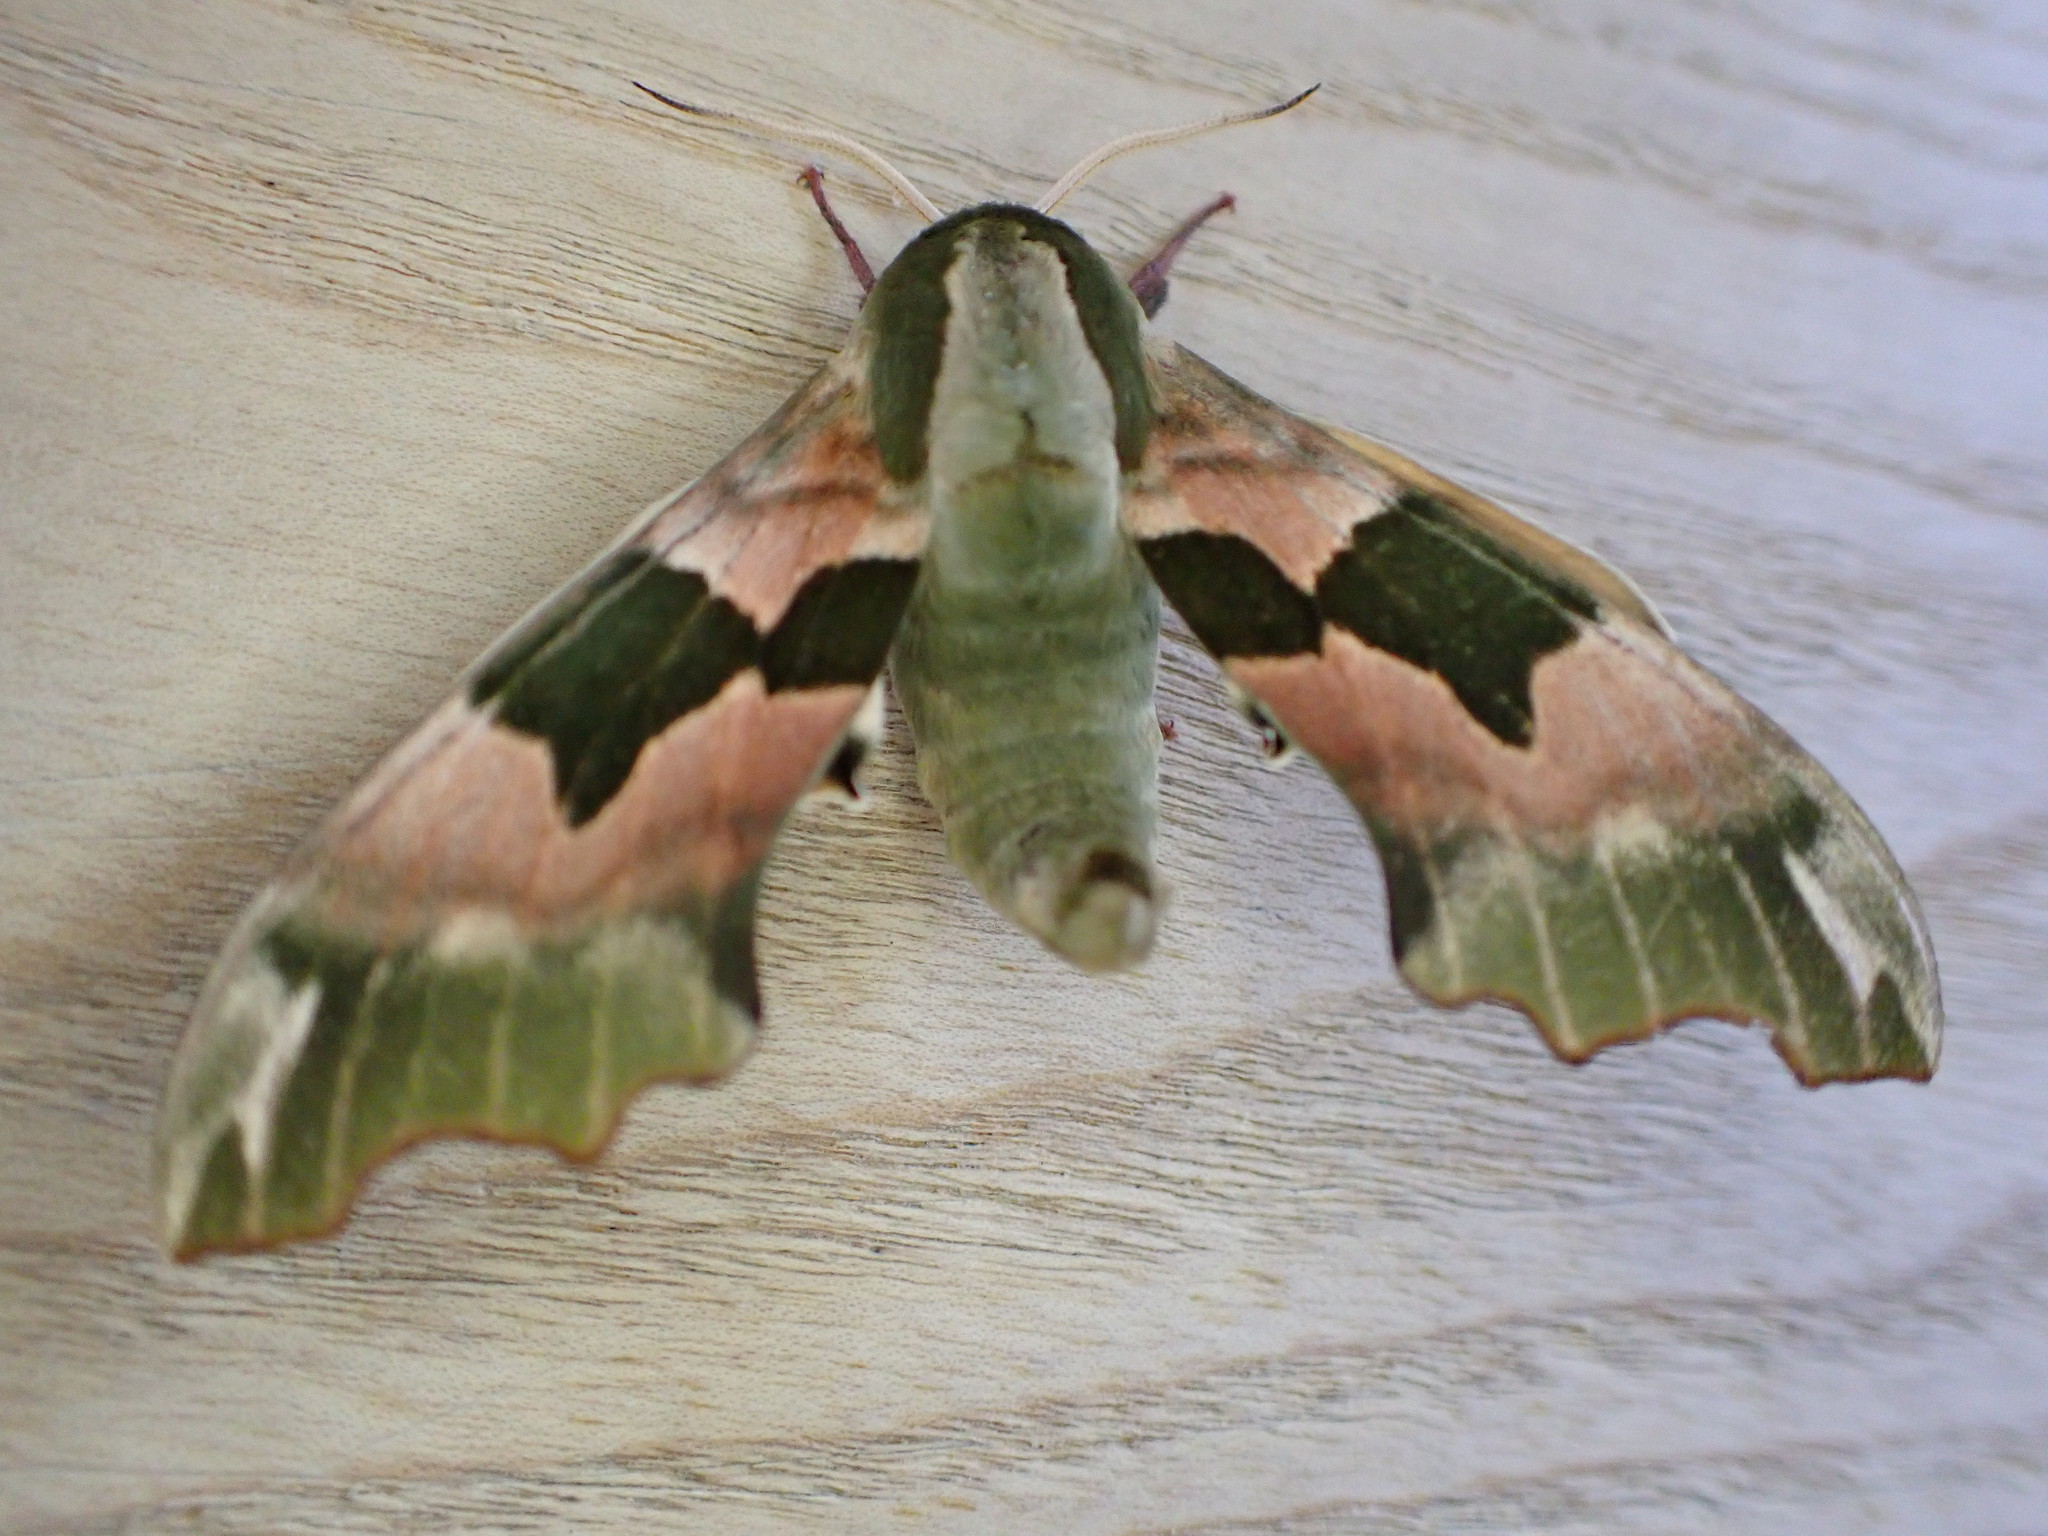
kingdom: Animalia
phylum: Arthropoda
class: Insecta
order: Lepidoptera
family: Sphingidae
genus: Mimas
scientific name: Mimas tiliae
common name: Lime hawk-moth
